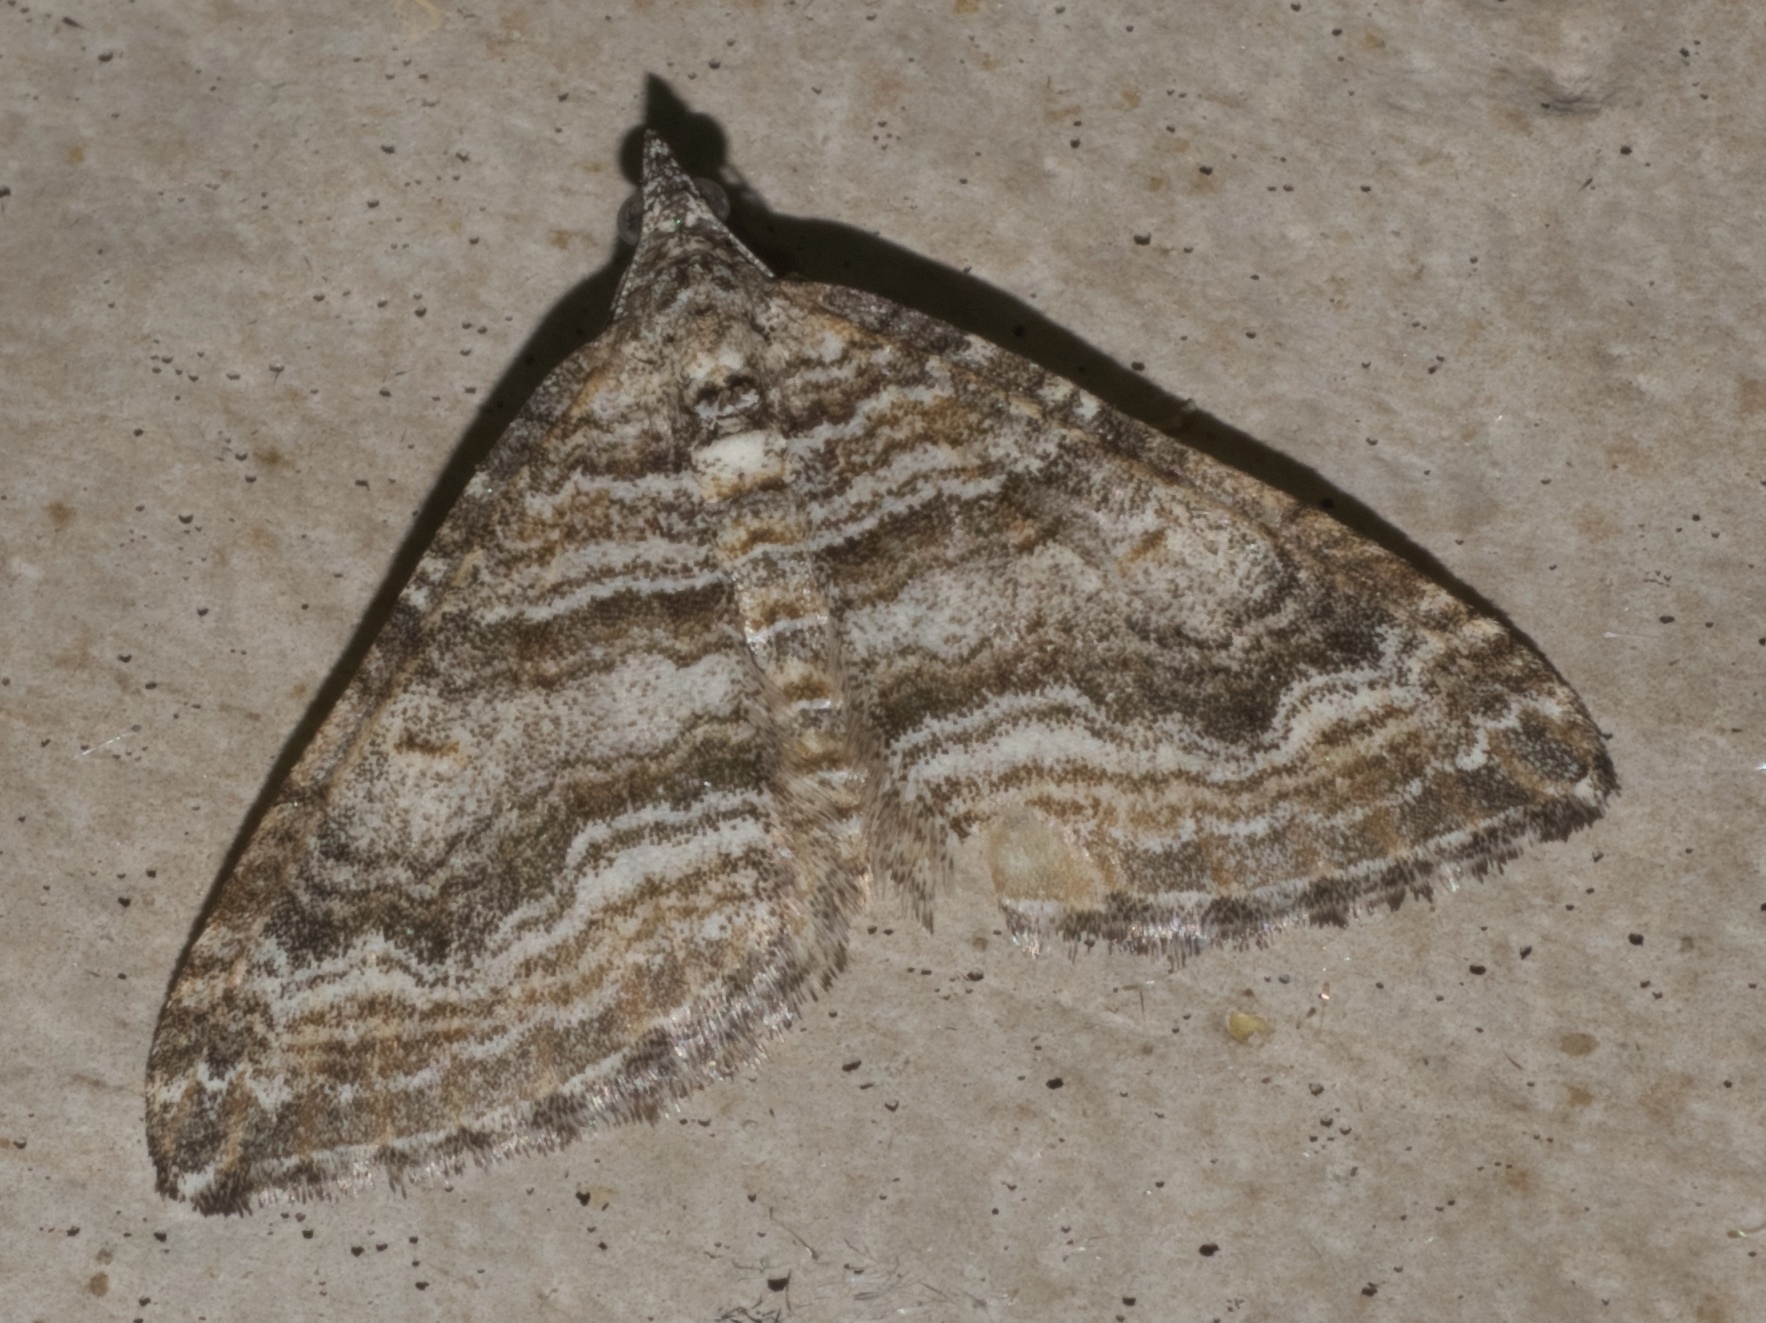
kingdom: Animalia
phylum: Arthropoda
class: Insecta
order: Lepidoptera
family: Geometridae
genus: Perizoma
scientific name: Perizoma custodiata
